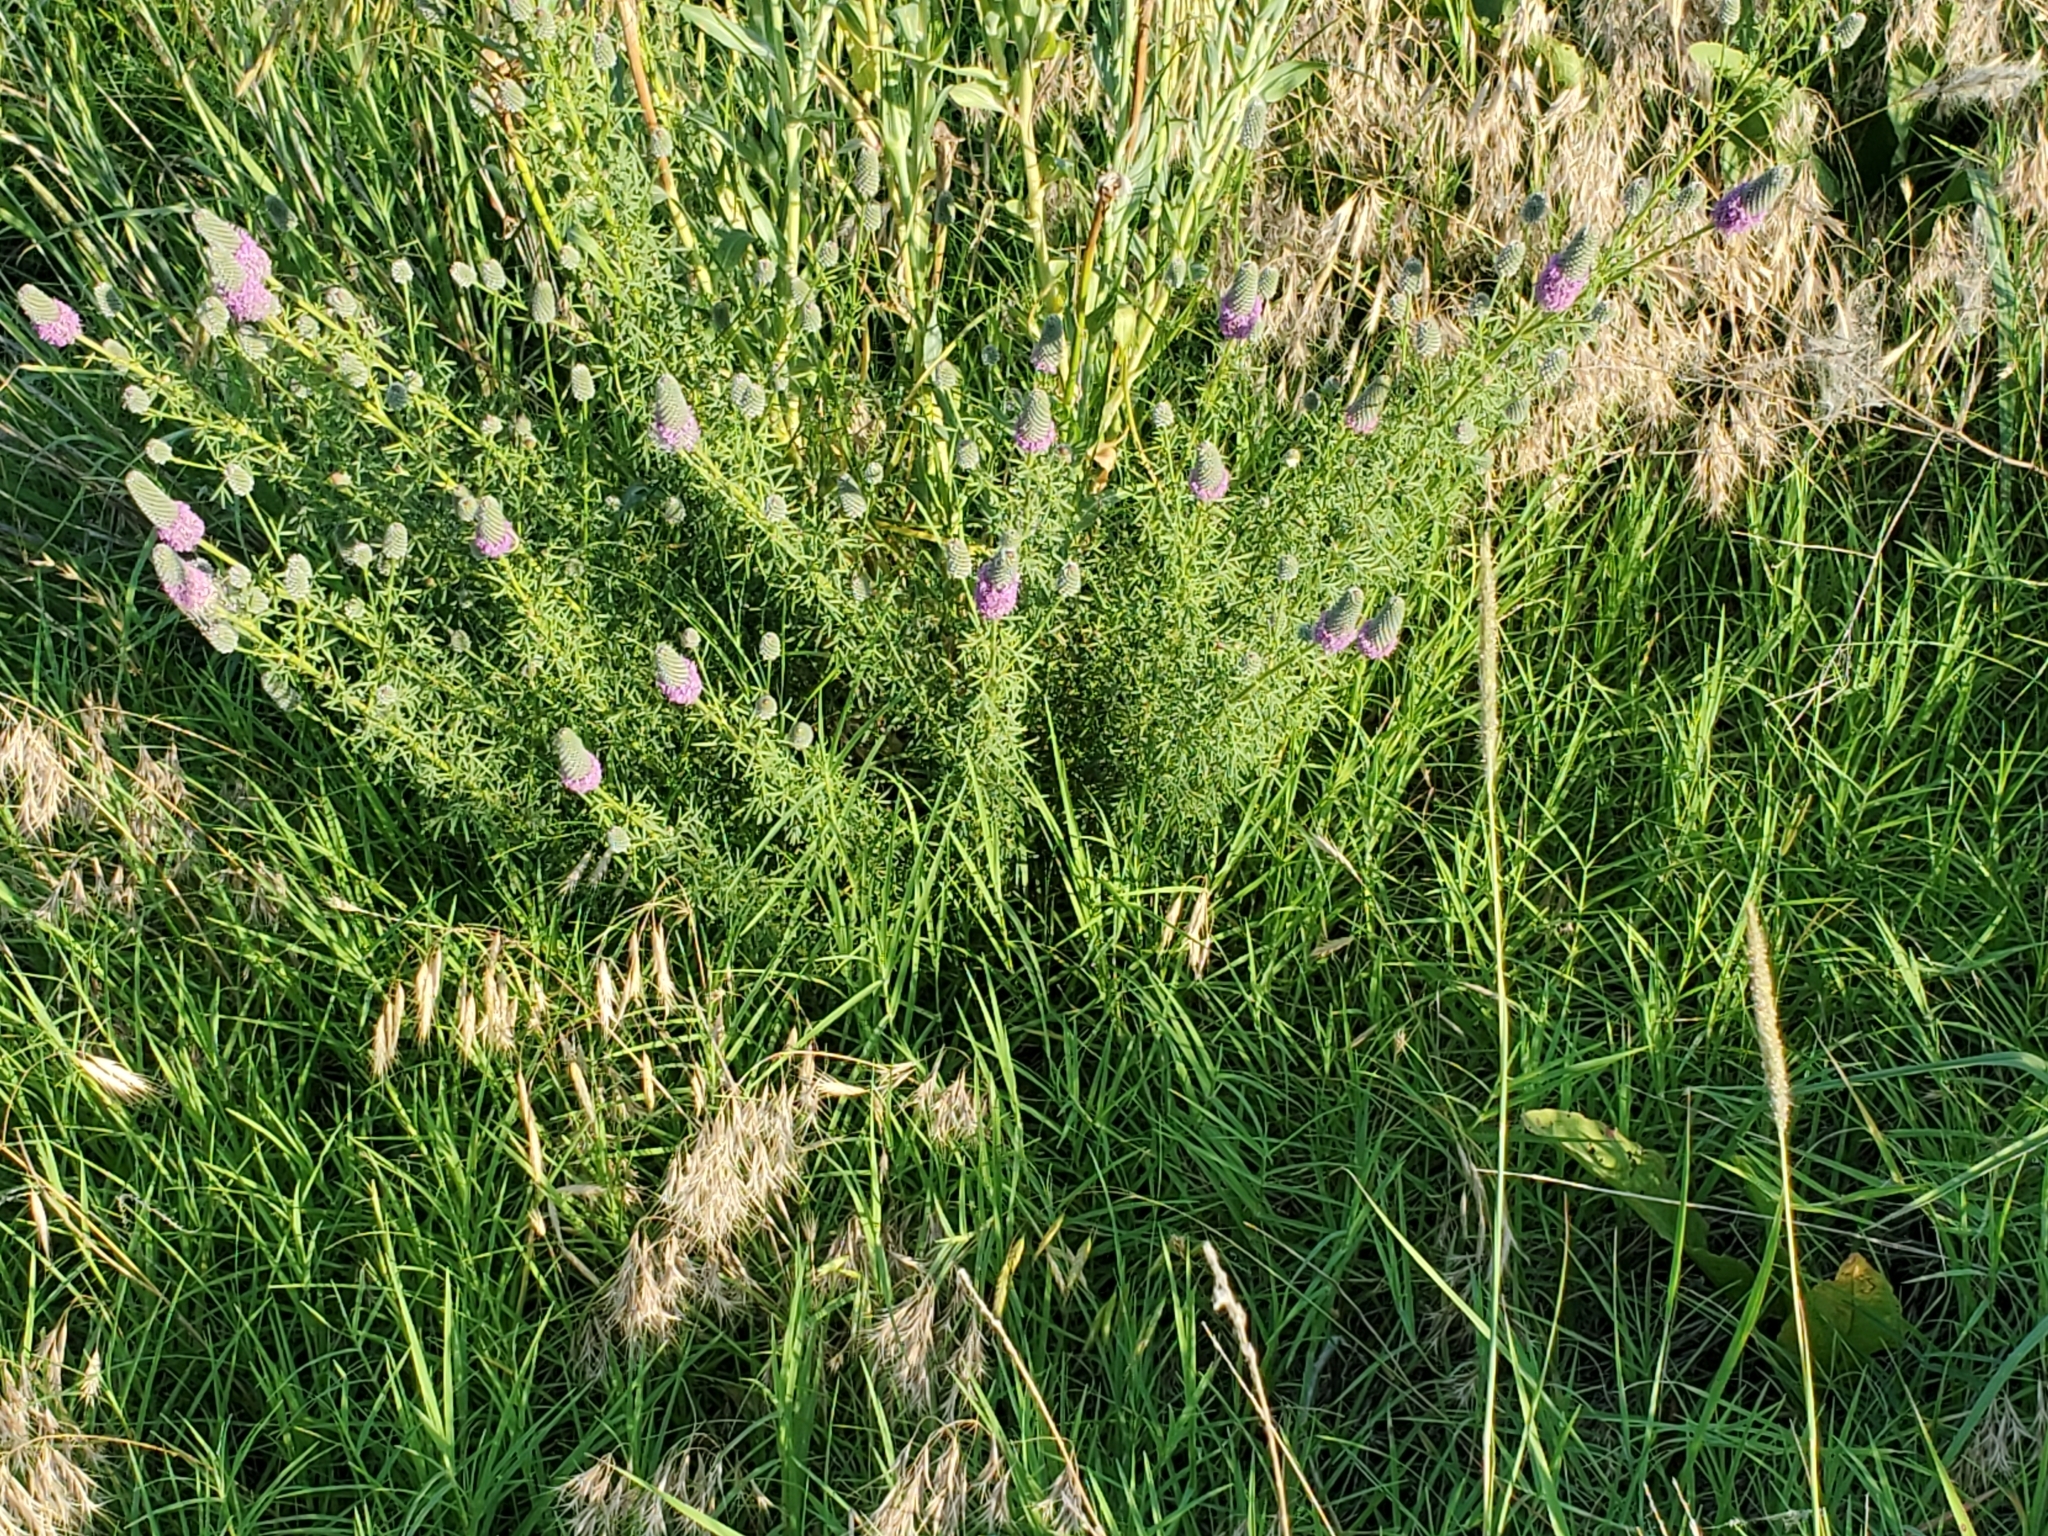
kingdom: Plantae
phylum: Tracheophyta
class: Magnoliopsida
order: Fabales
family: Fabaceae
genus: Dalea
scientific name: Dalea purpurea
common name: Purple prairie-clover
